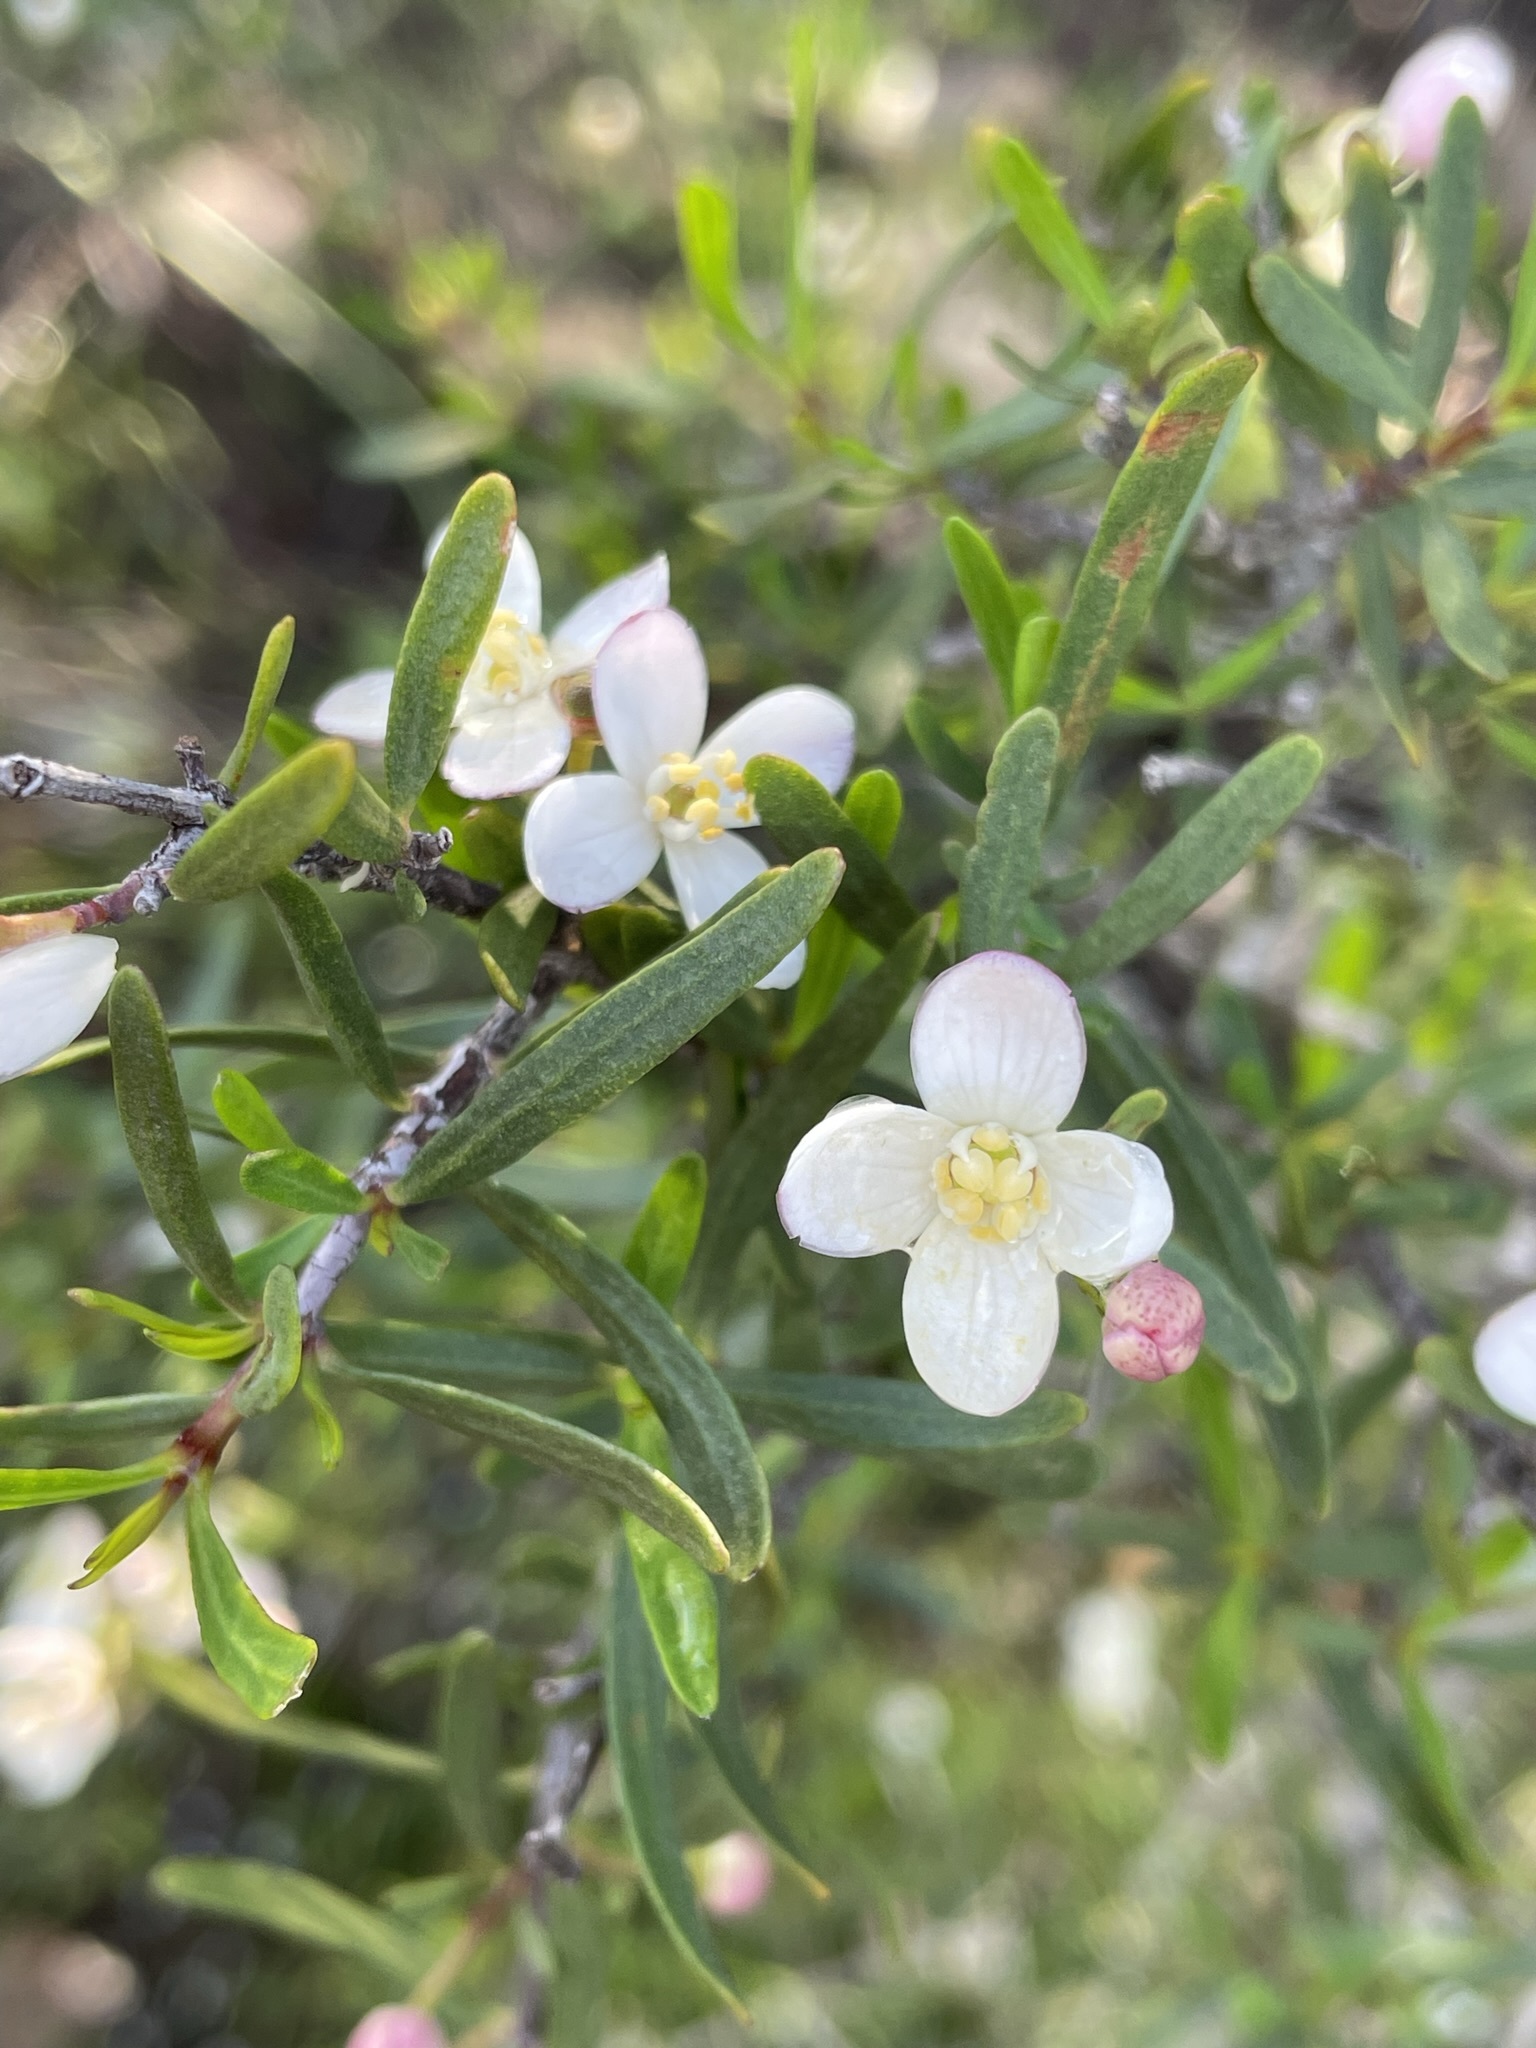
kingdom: Plantae
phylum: Tracheophyta
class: Magnoliopsida
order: Sapindales
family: Rutaceae
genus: Cneoridium
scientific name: Cneoridium dumosum
